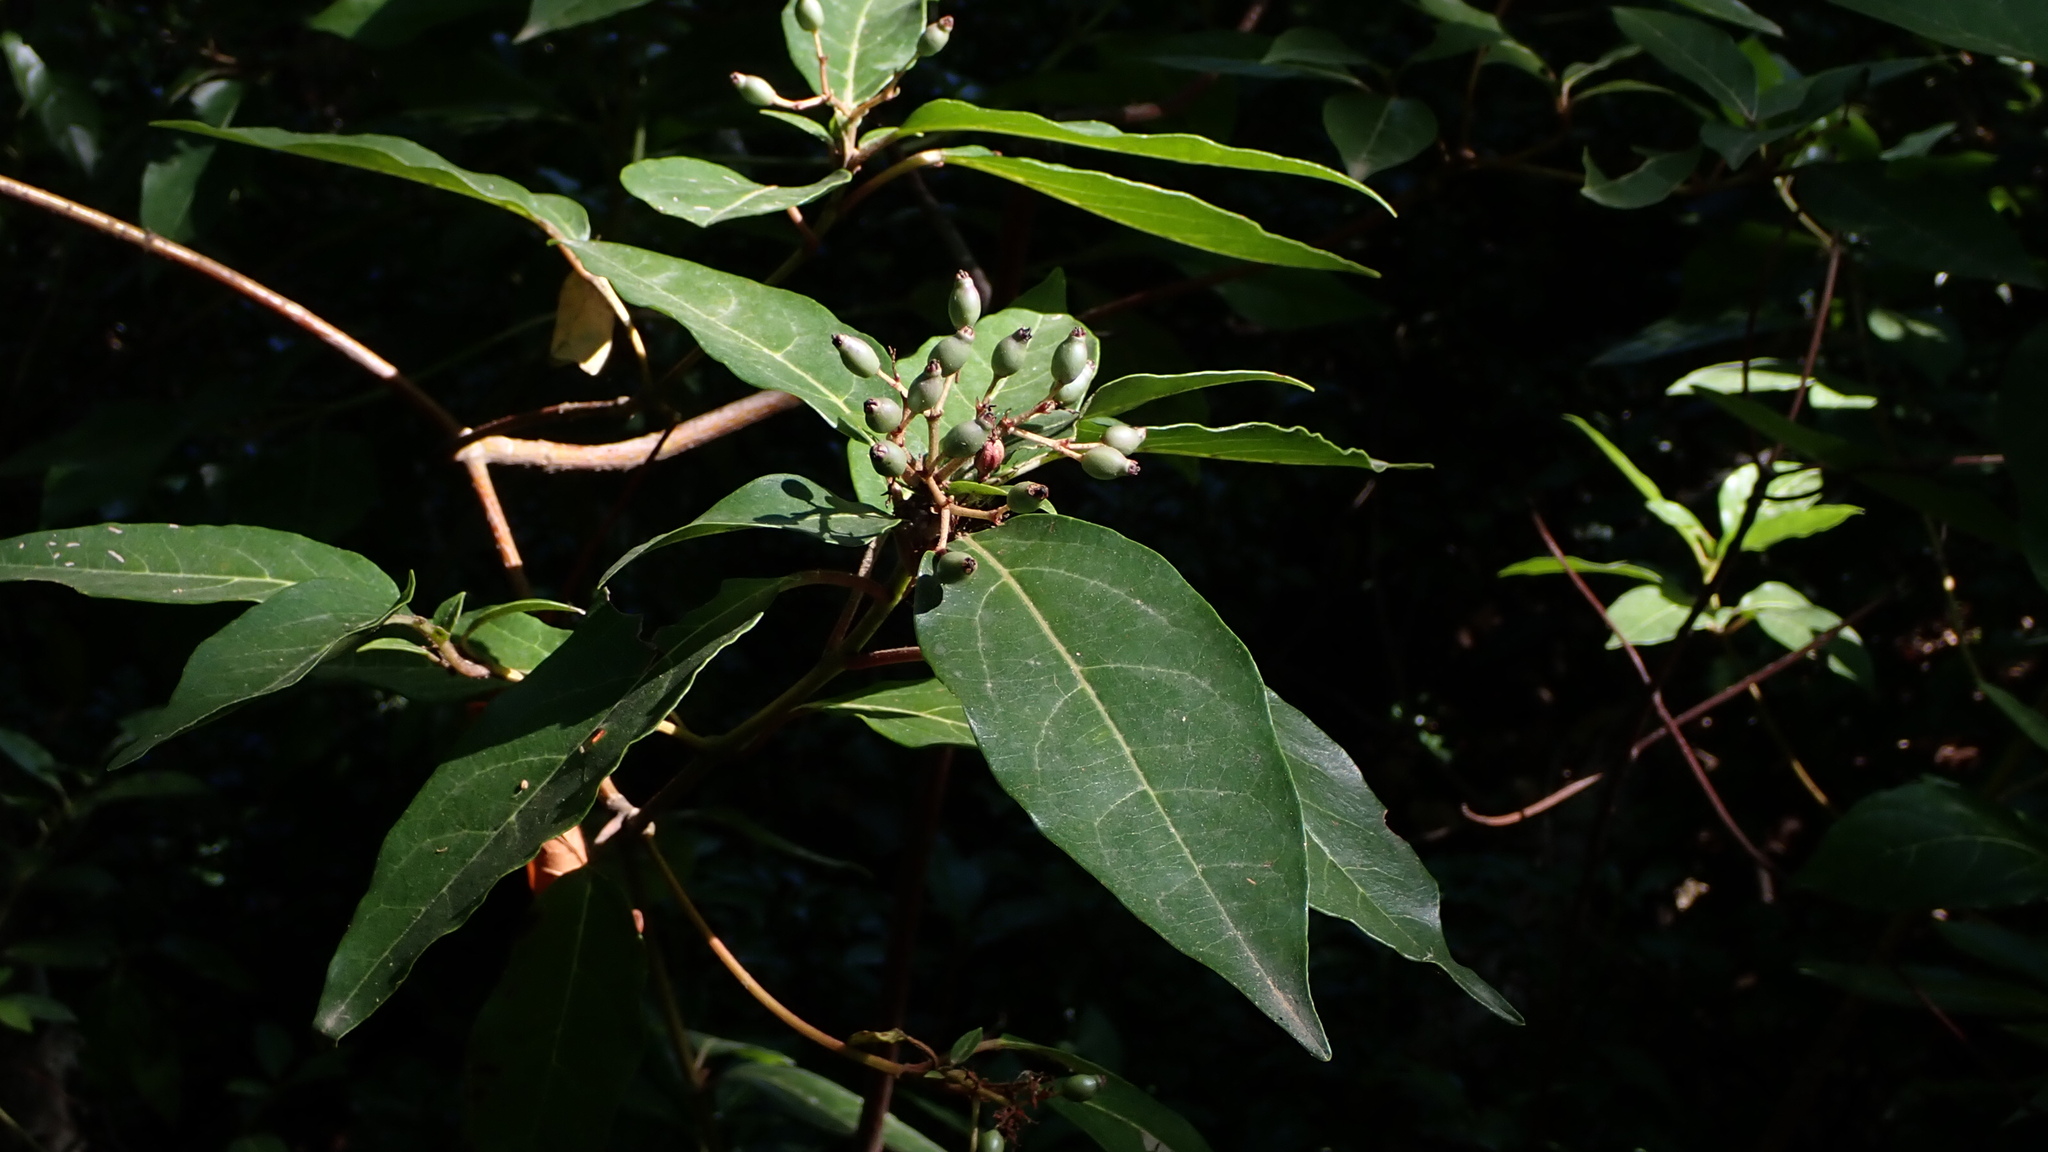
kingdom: Plantae
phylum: Tracheophyta
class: Magnoliopsida
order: Dipsacales
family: Viburnaceae
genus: Viburnum
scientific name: Viburnum tinus
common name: Laurustinus
